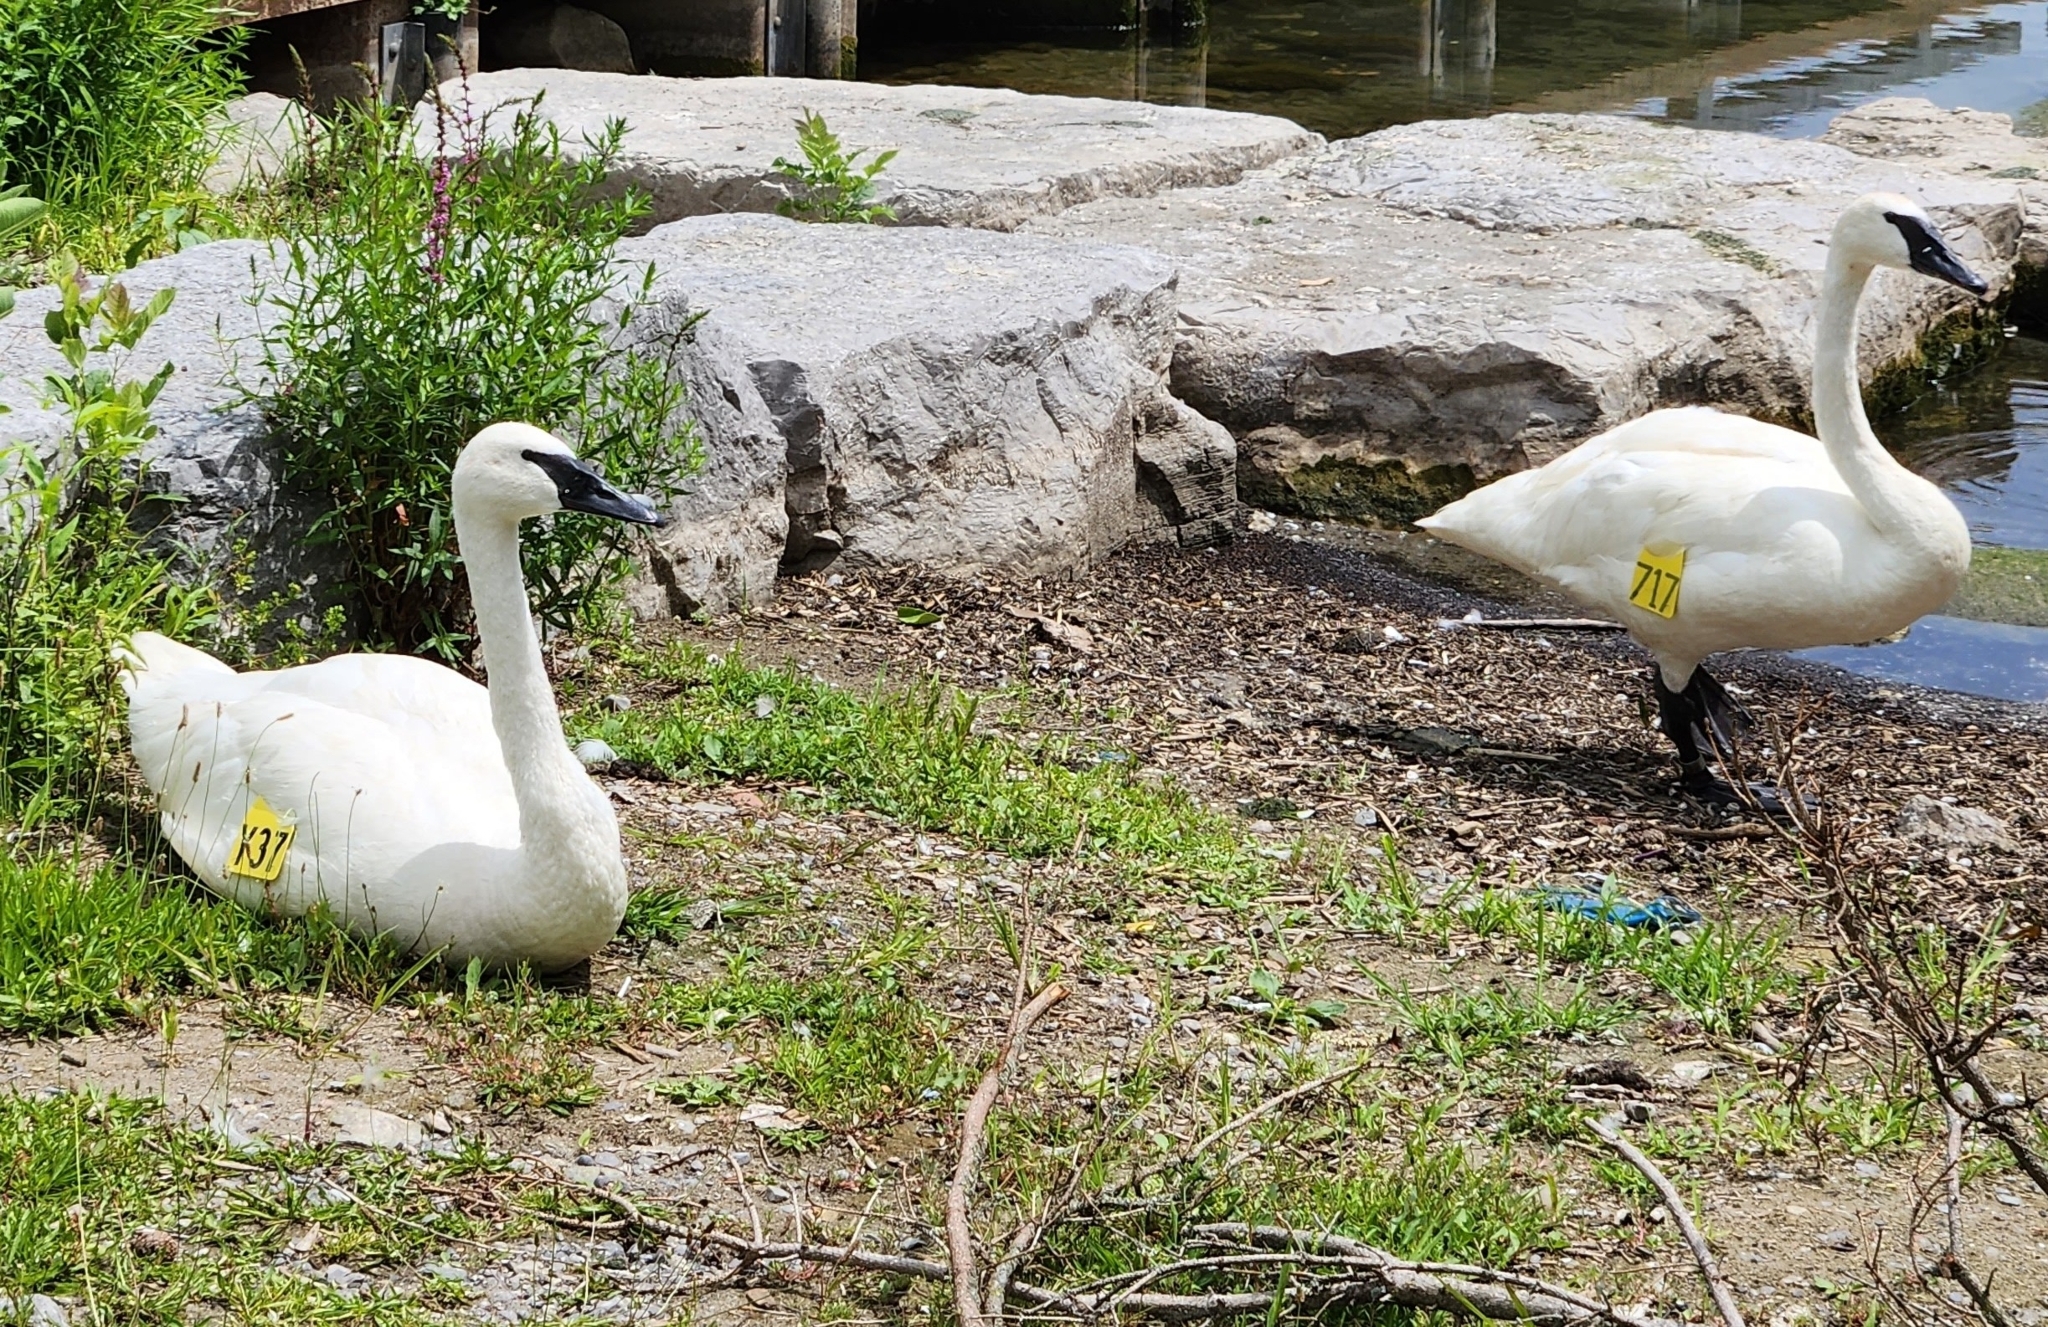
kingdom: Animalia
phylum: Chordata
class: Aves
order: Anseriformes
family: Anatidae
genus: Cygnus
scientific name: Cygnus buccinator
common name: Trumpeter swan
